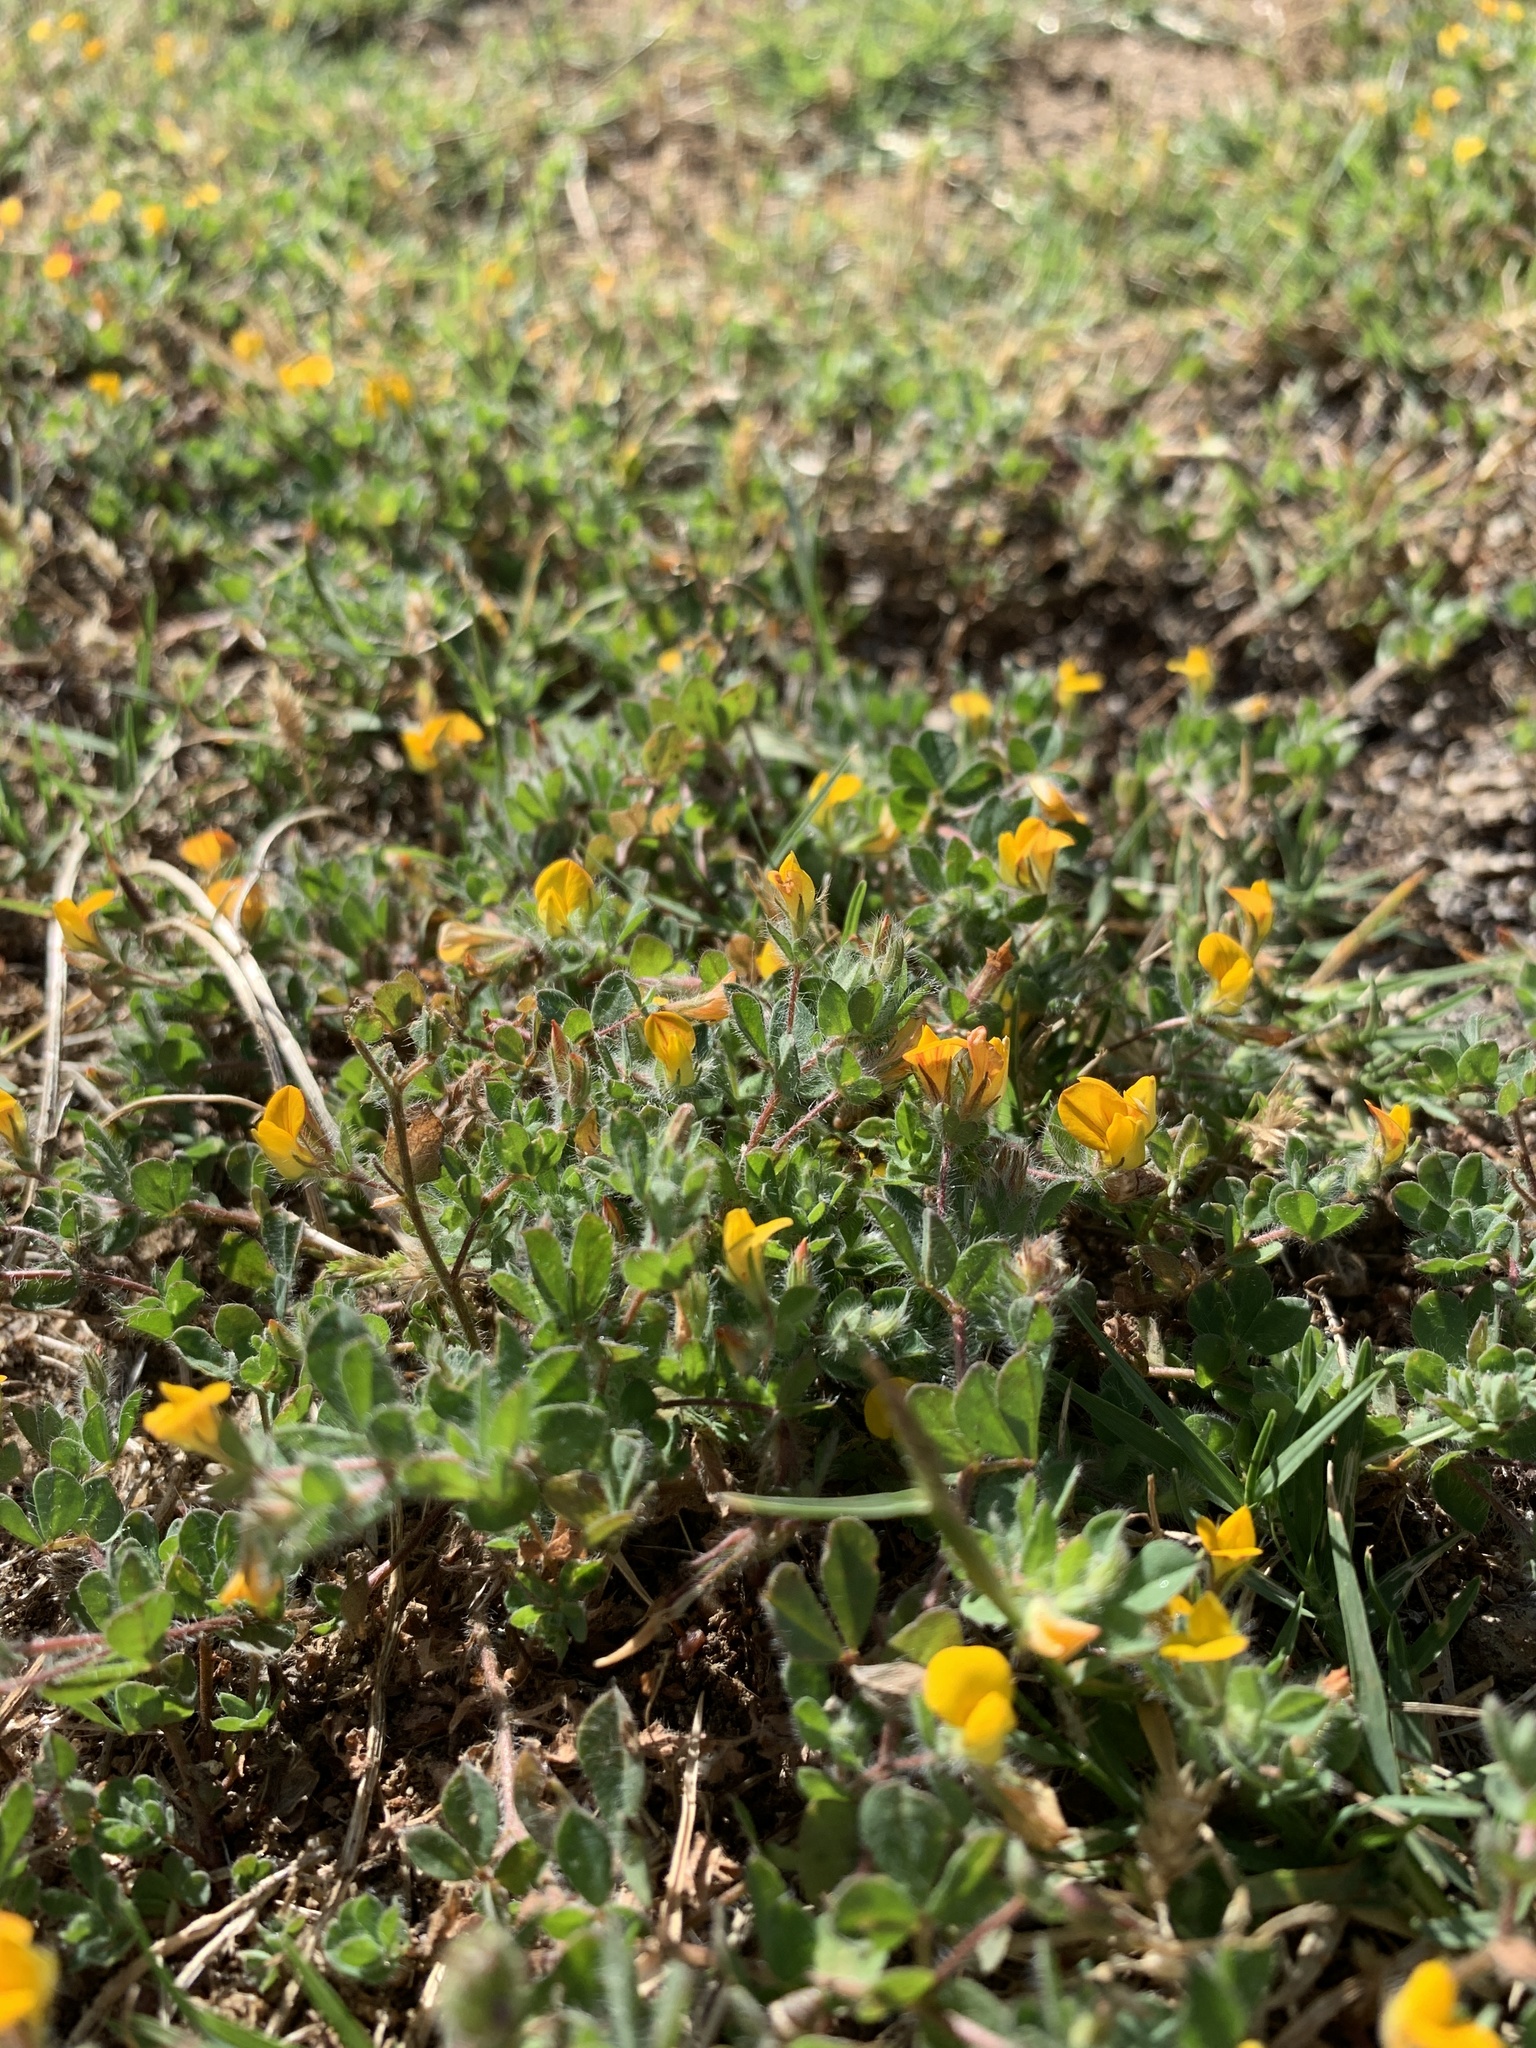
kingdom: Plantae
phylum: Tracheophyta
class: Magnoliopsida
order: Fabales
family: Fabaceae
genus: Lotus
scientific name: Lotus subbiflorus
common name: Hairy bird's-foot trefoil
